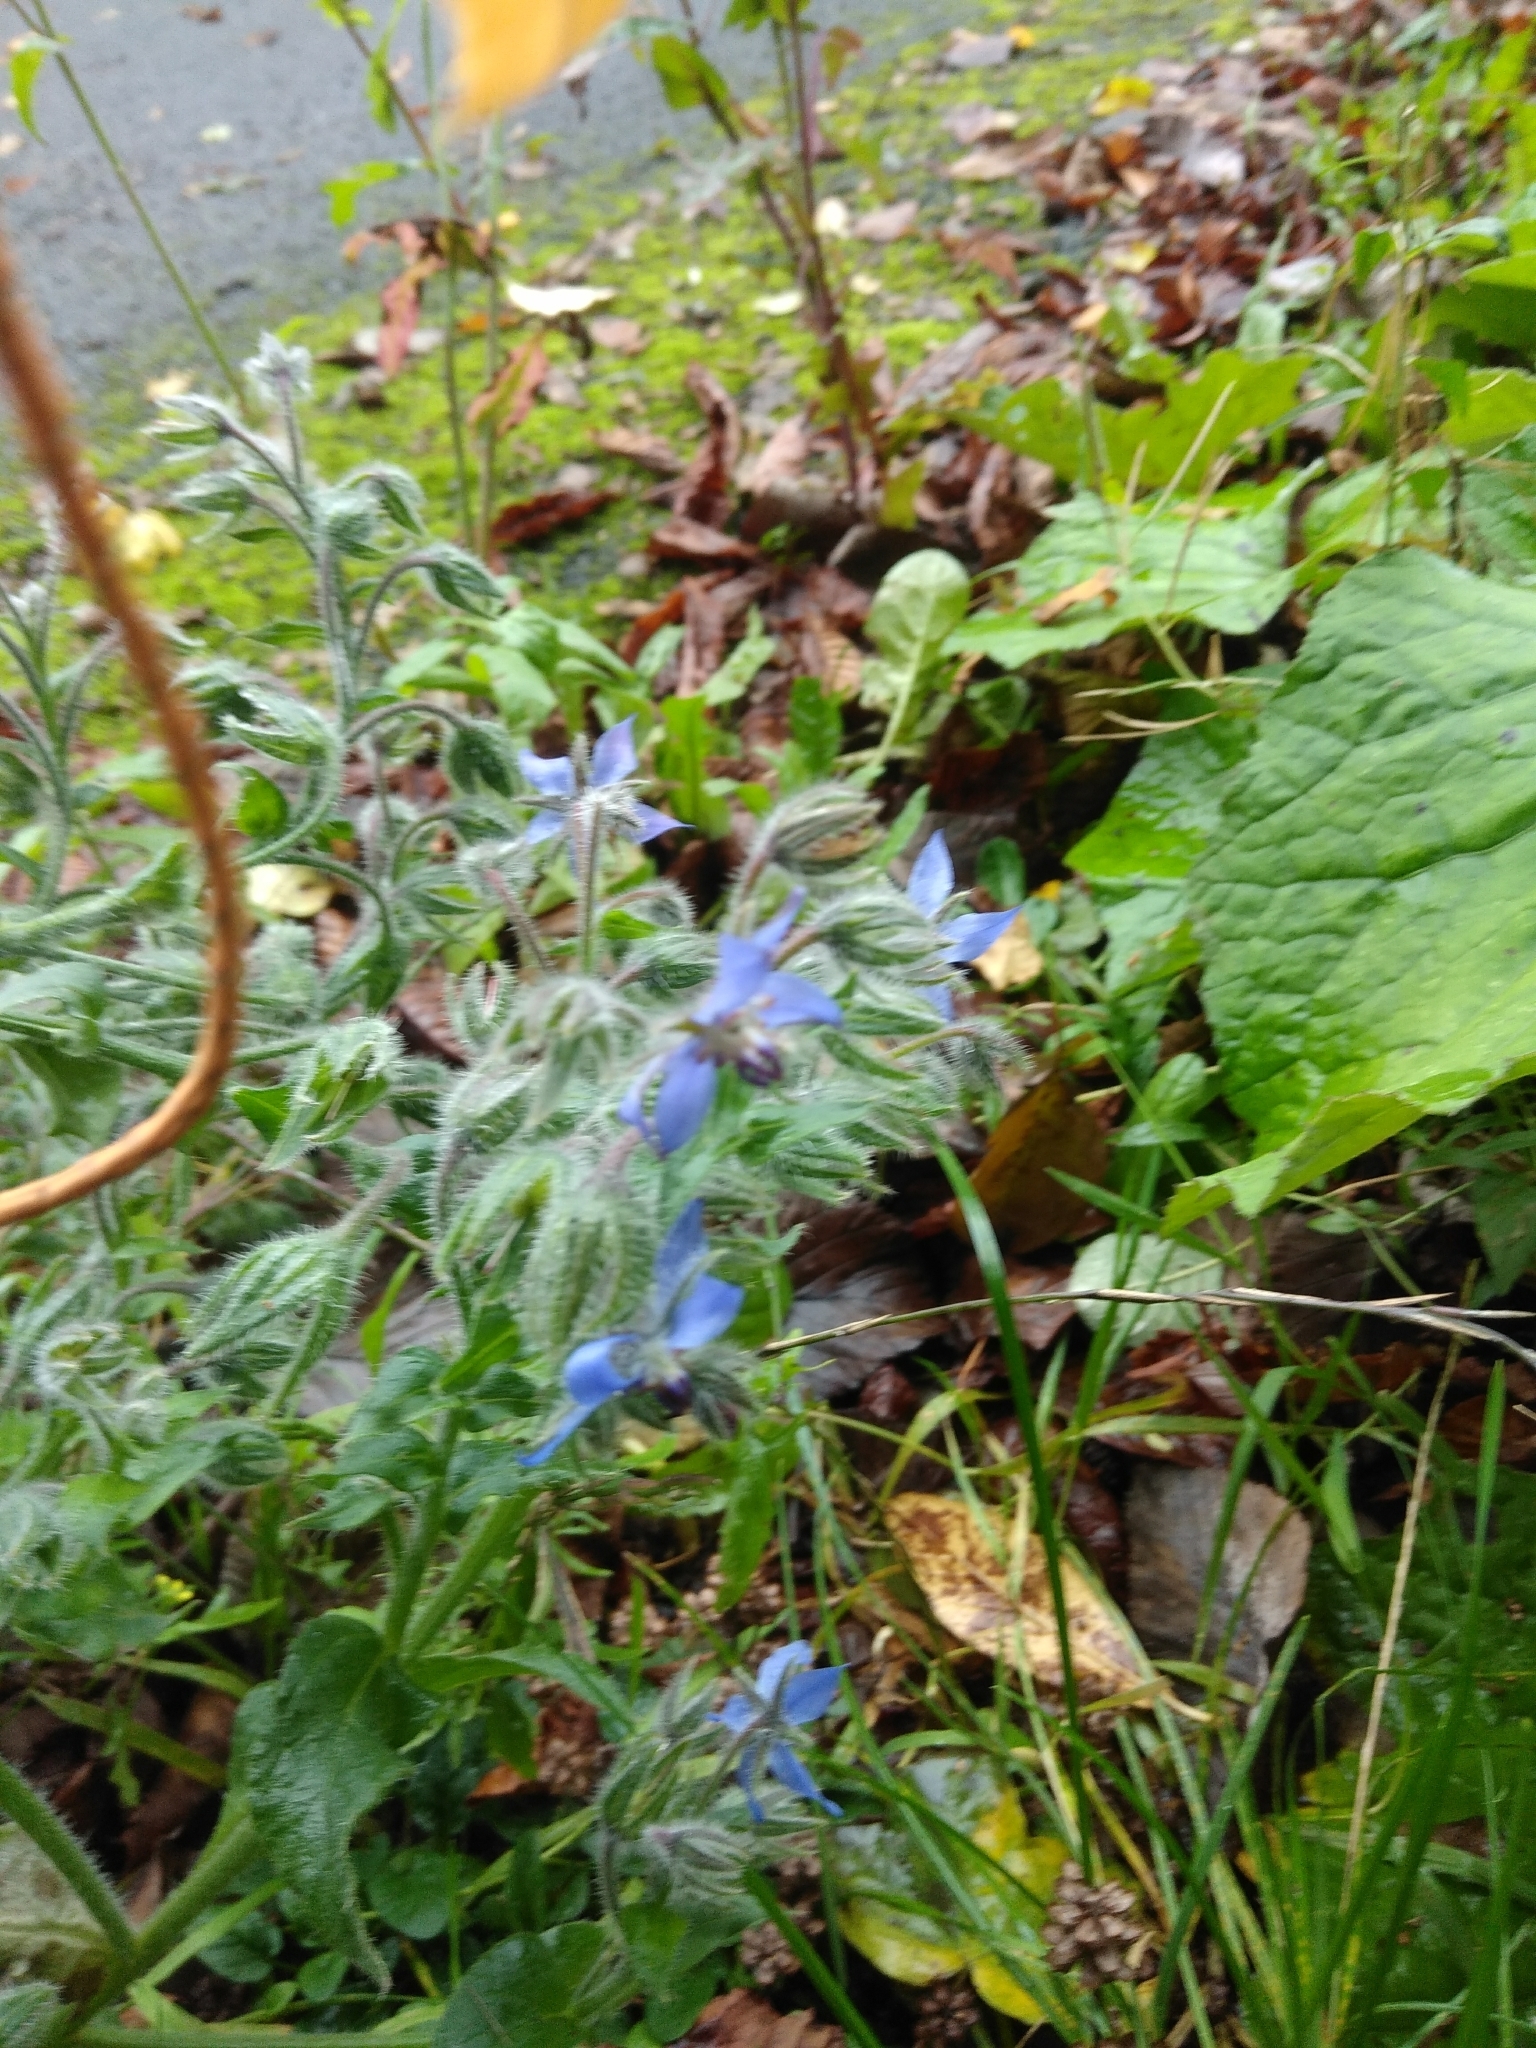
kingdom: Plantae
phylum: Tracheophyta
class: Magnoliopsida
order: Boraginales
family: Boraginaceae
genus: Borago
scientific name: Borago officinalis
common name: Borage
